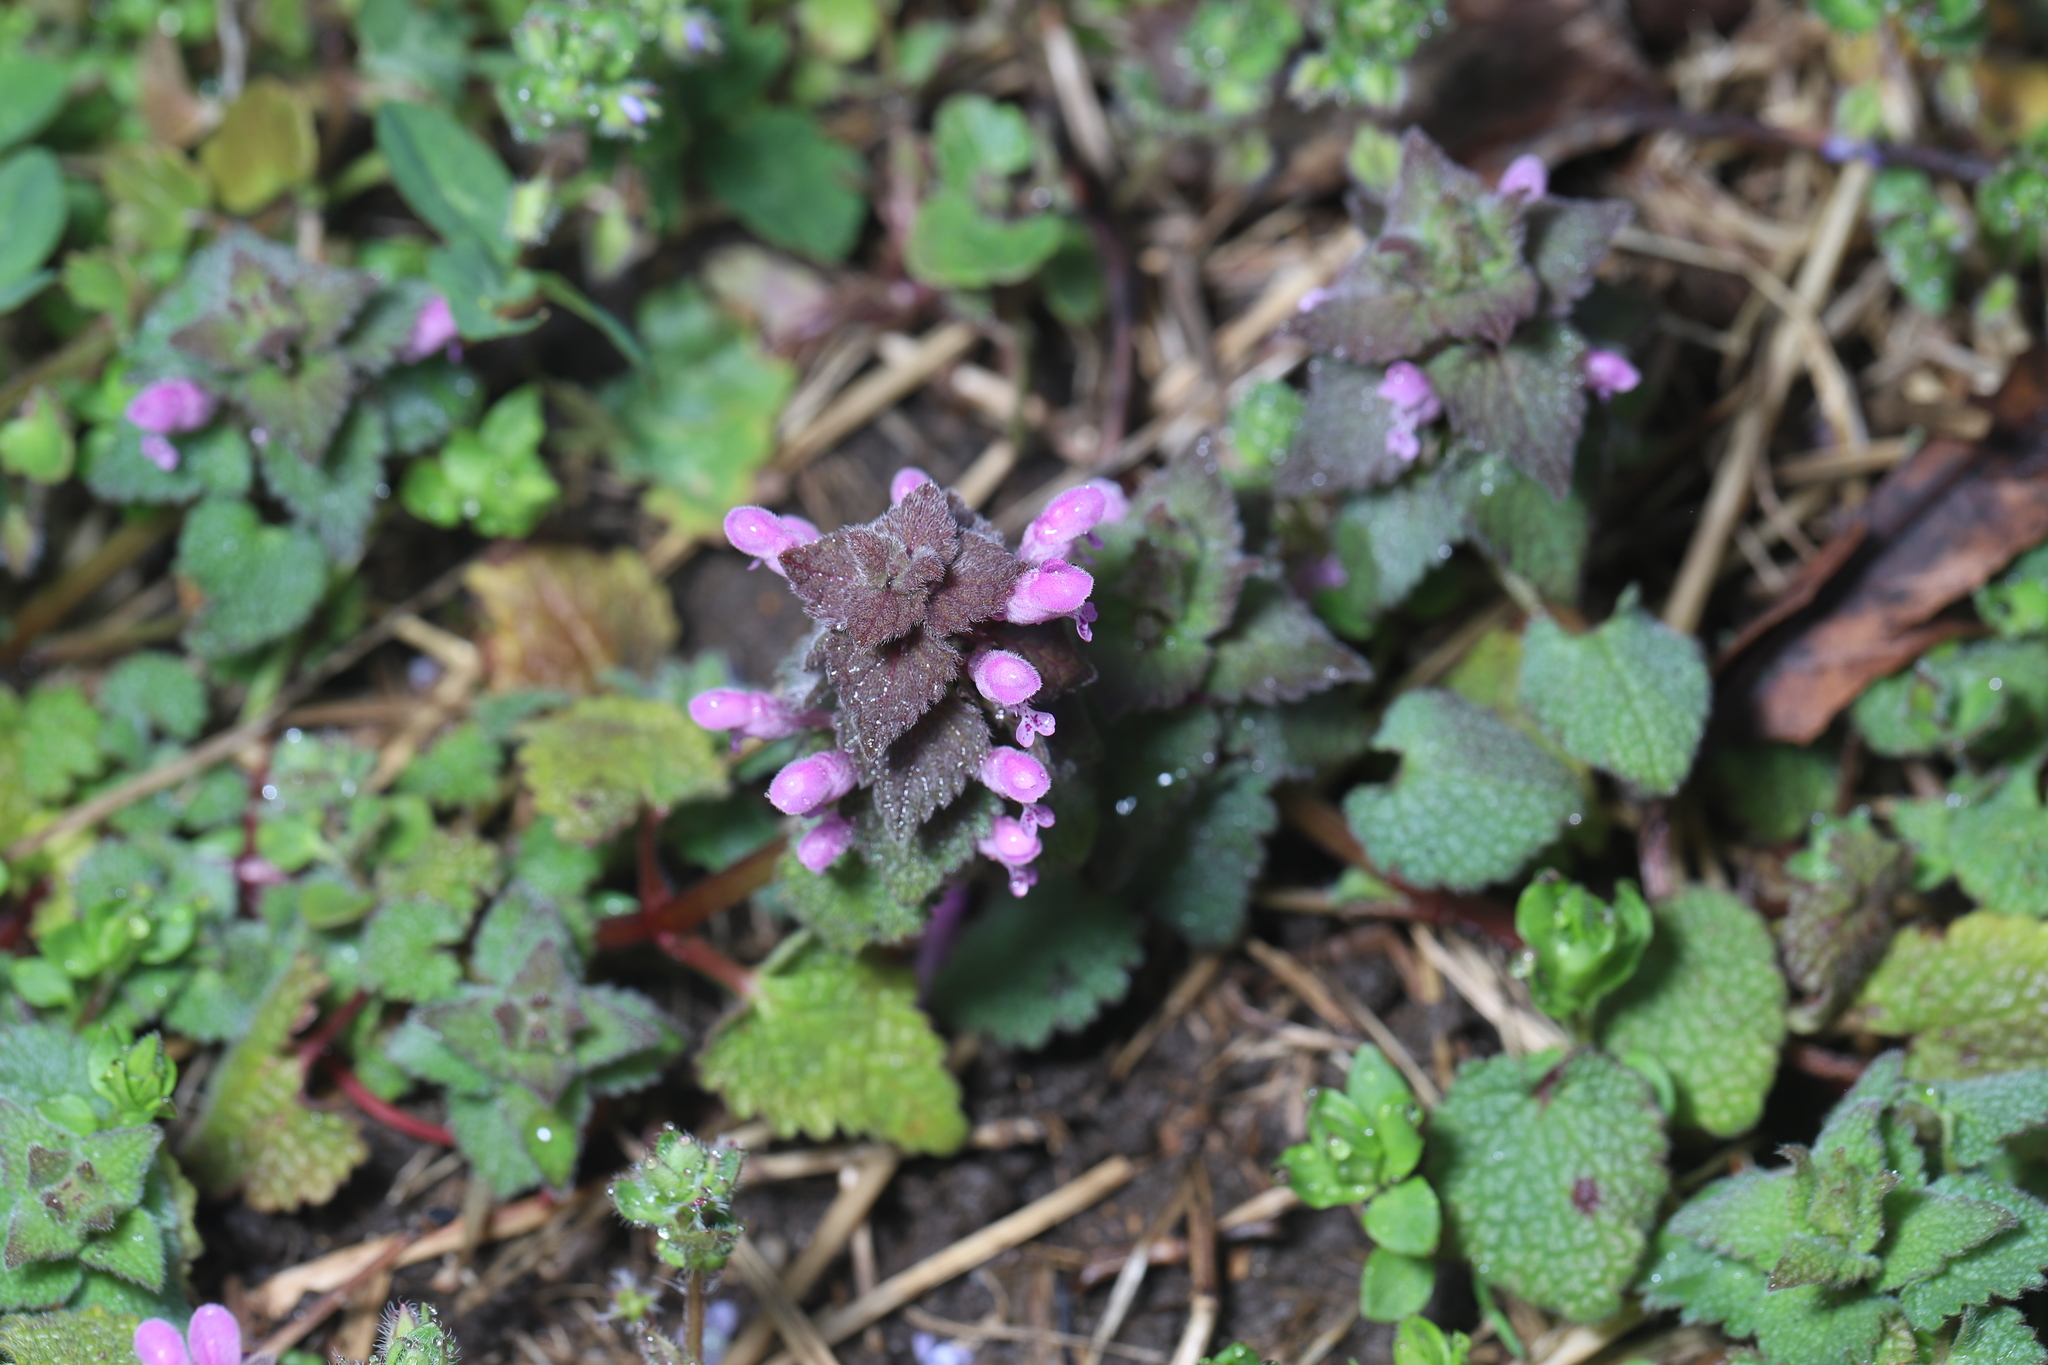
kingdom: Plantae
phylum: Tracheophyta
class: Magnoliopsida
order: Lamiales
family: Lamiaceae
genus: Lamium
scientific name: Lamium purpureum
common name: Red dead-nettle
